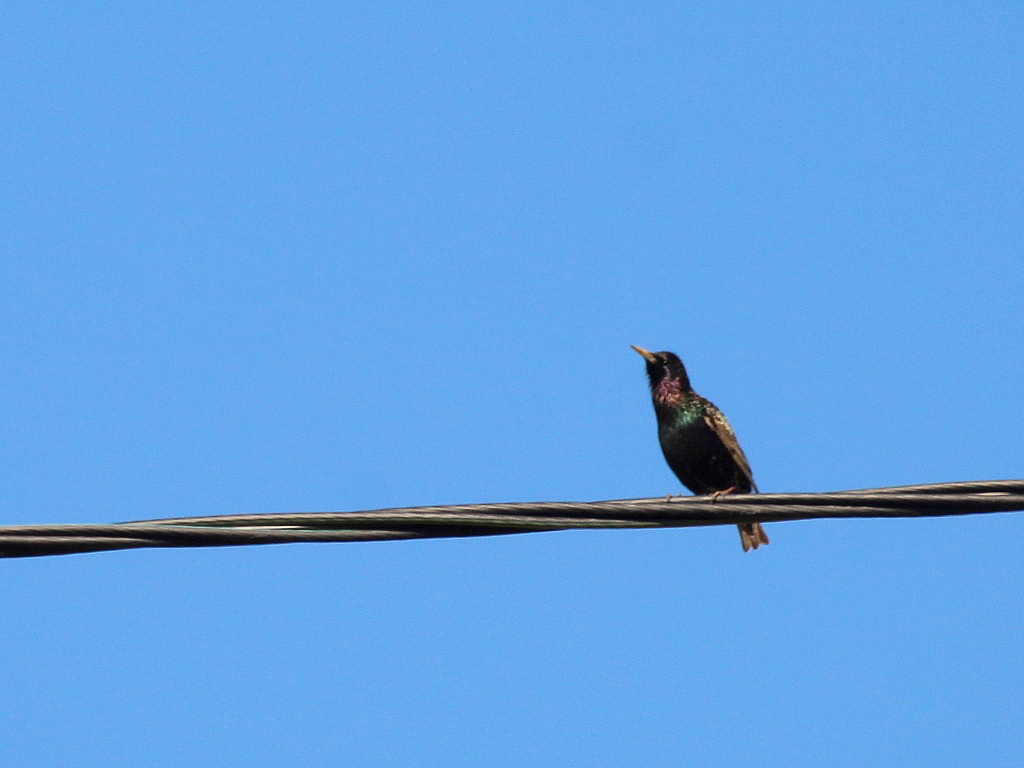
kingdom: Animalia
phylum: Chordata
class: Aves
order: Passeriformes
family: Sturnidae
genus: Sturnus
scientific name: Sturnus vulgaris
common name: Common starling
